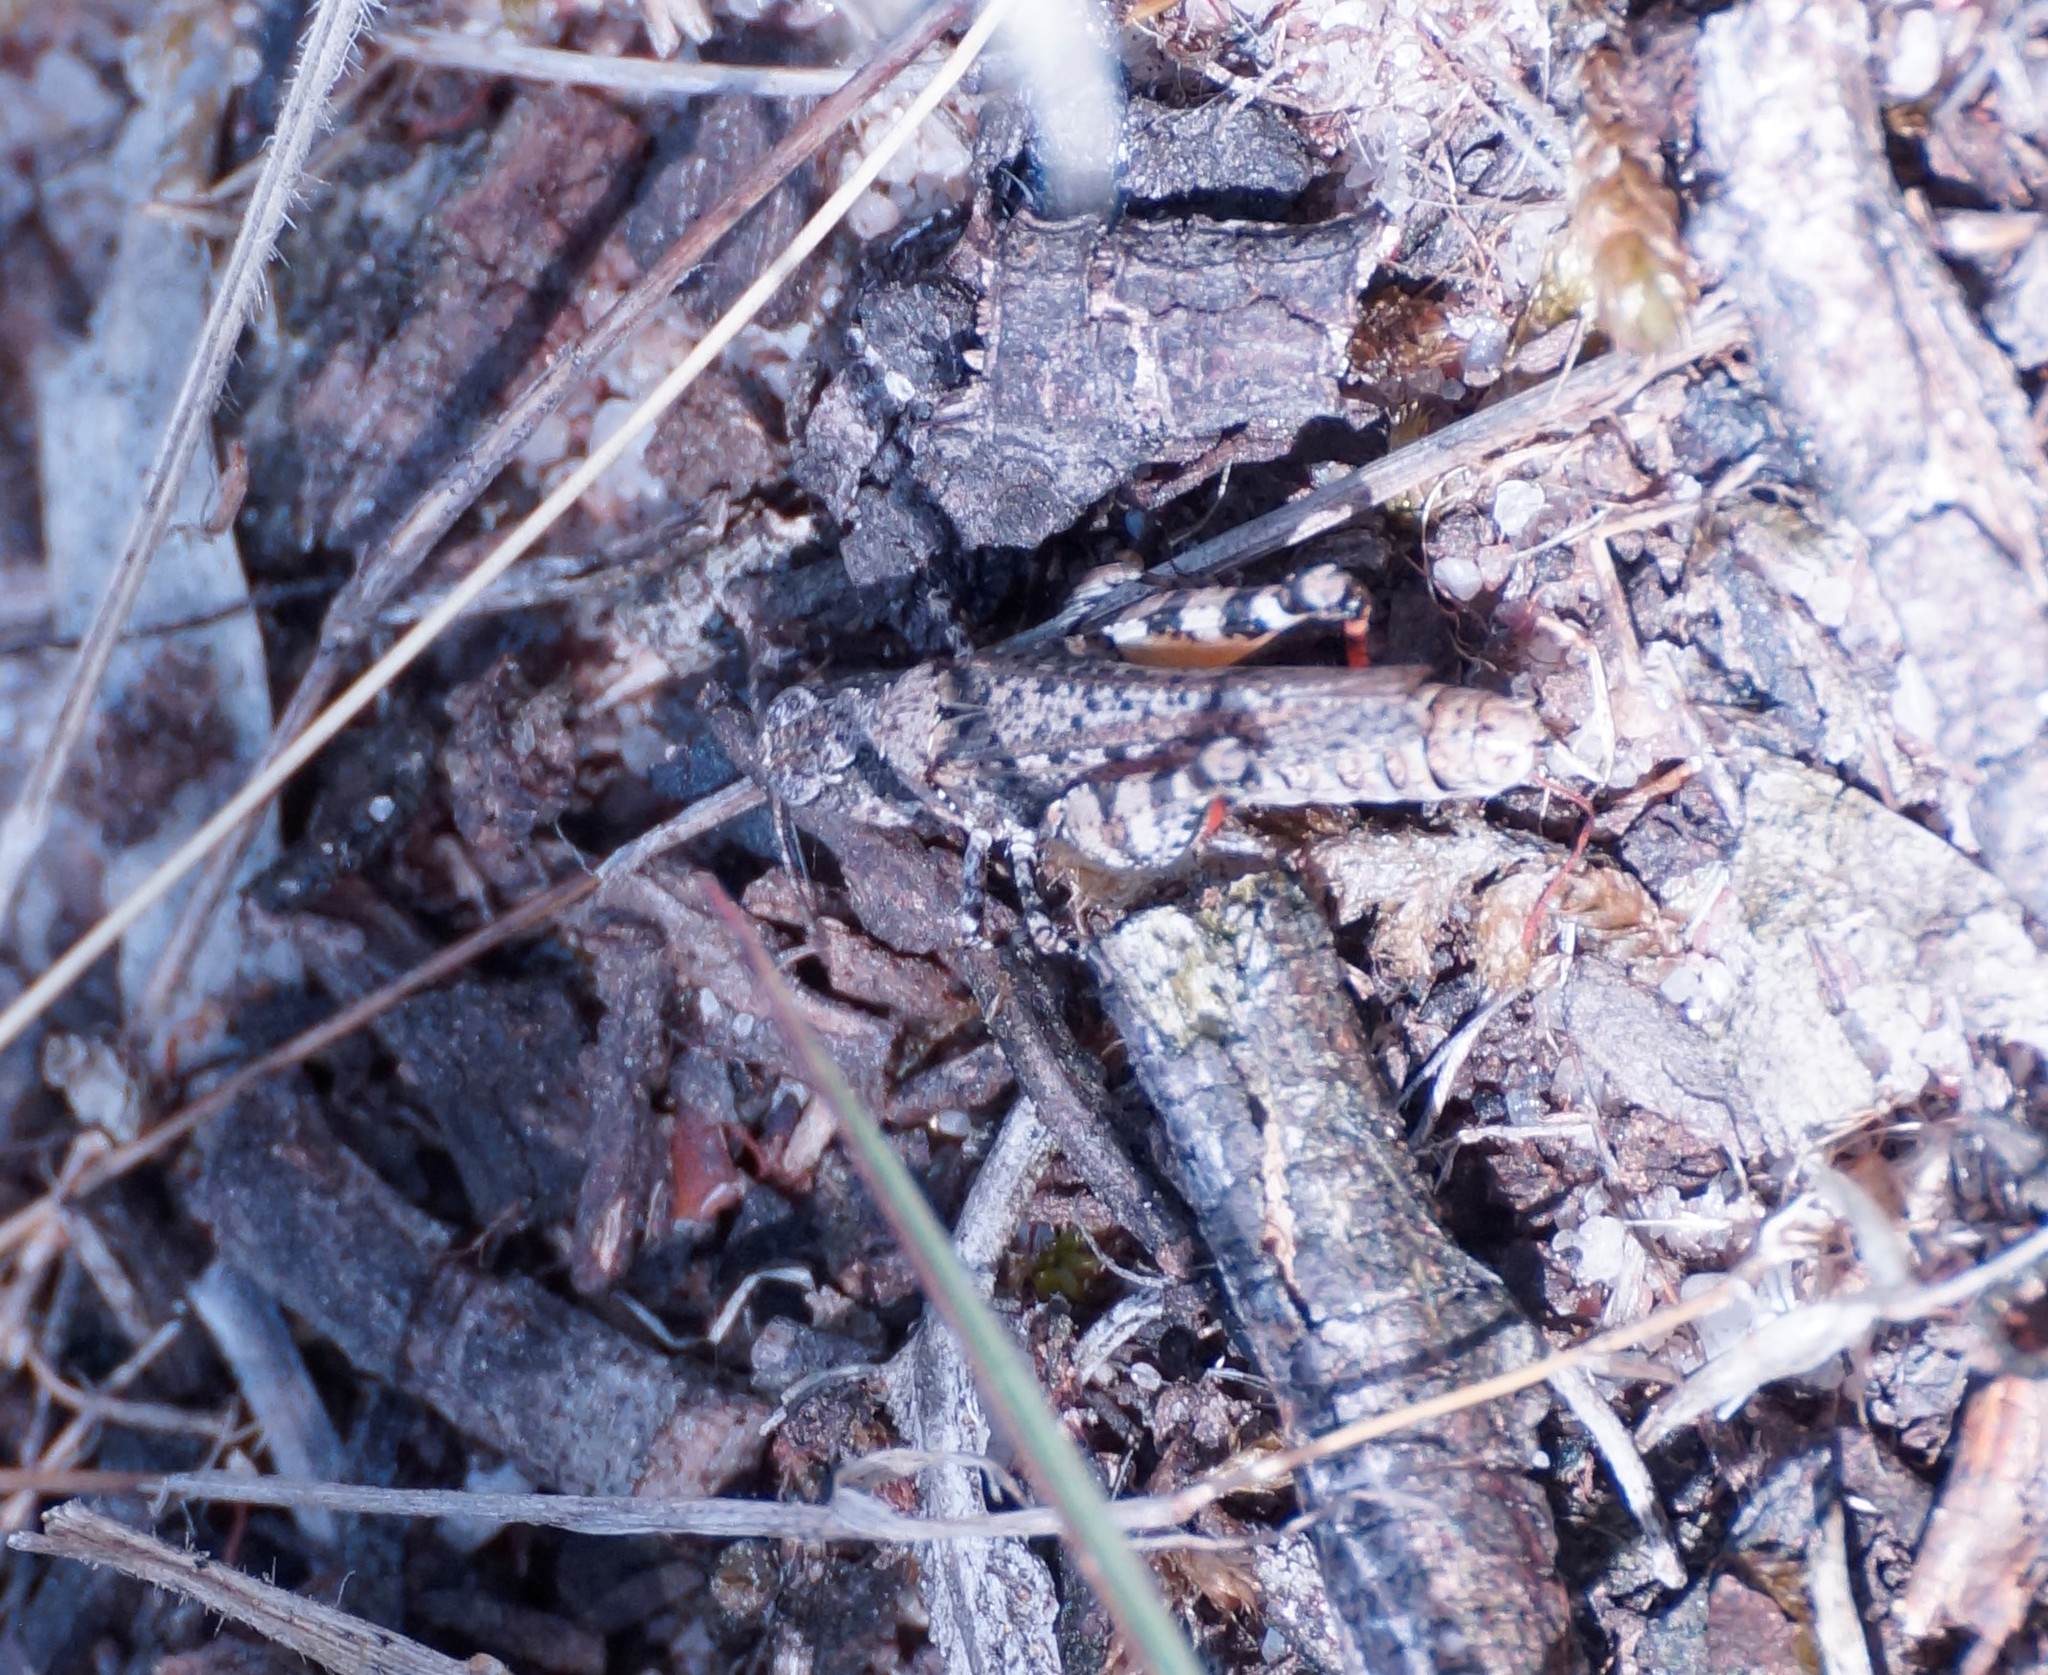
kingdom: Animalia
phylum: Arthropoda
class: Insecta
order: Orthoptera
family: Acrididae
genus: Pycnostictus
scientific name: Pycnostictus seriatus
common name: Common bandwing
